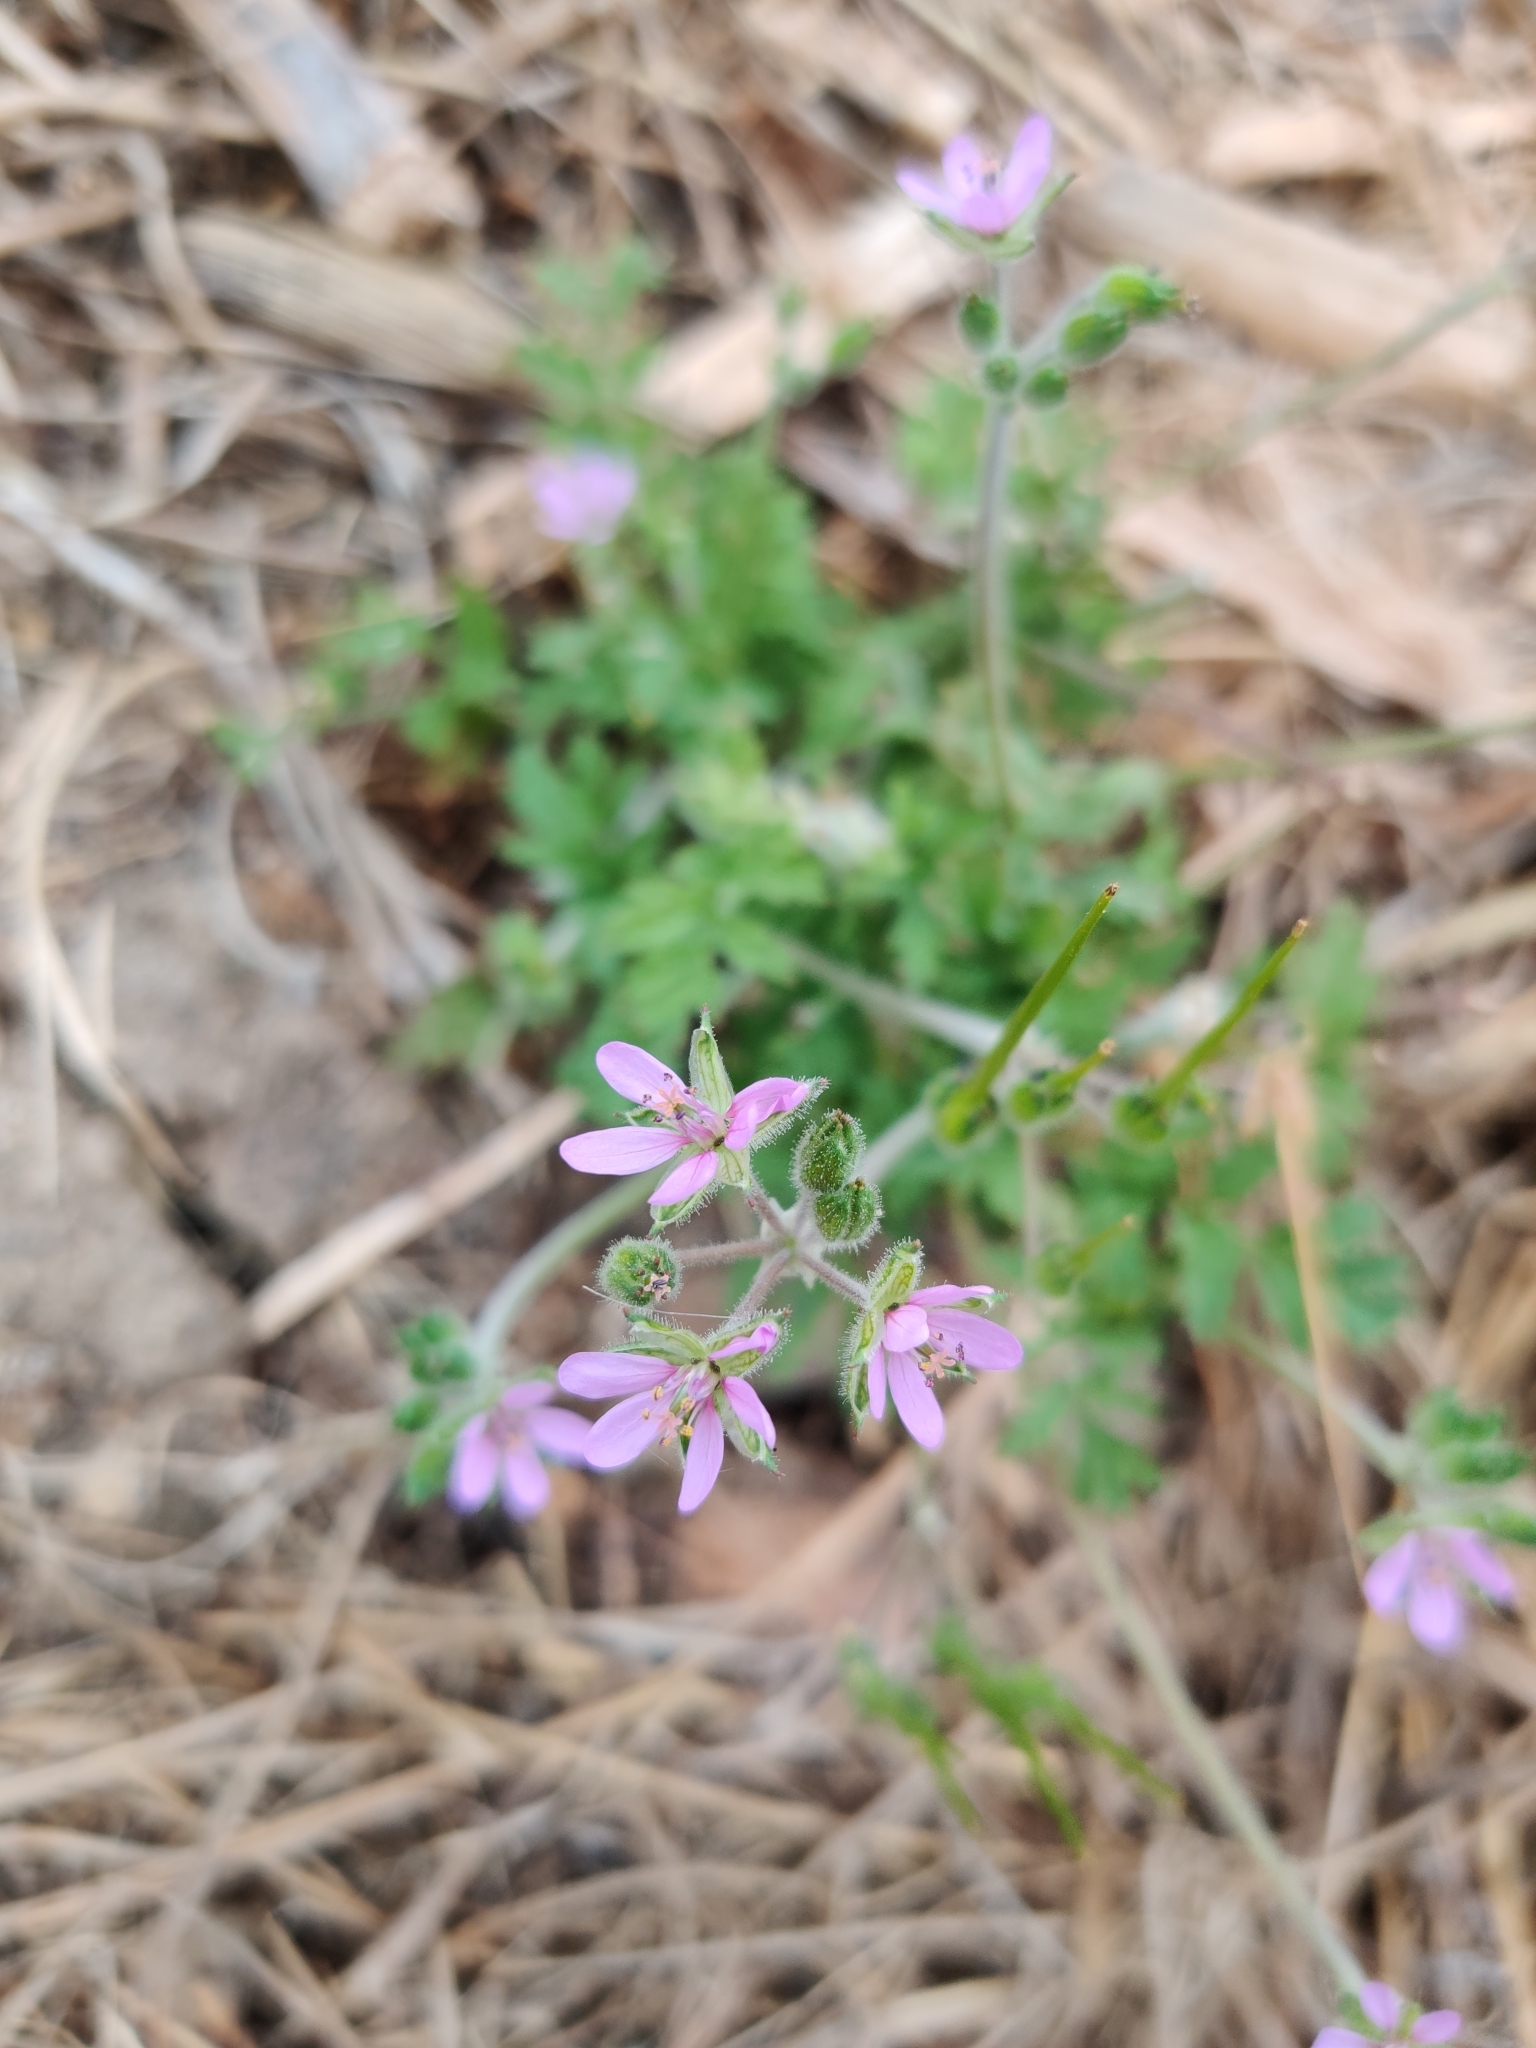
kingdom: Plantae
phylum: Tracheophyta
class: Magnoliopsida
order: Geraniales
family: Geraniaceae
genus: Erodium
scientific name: Erodium moschatum
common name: Musk stork's-bill
